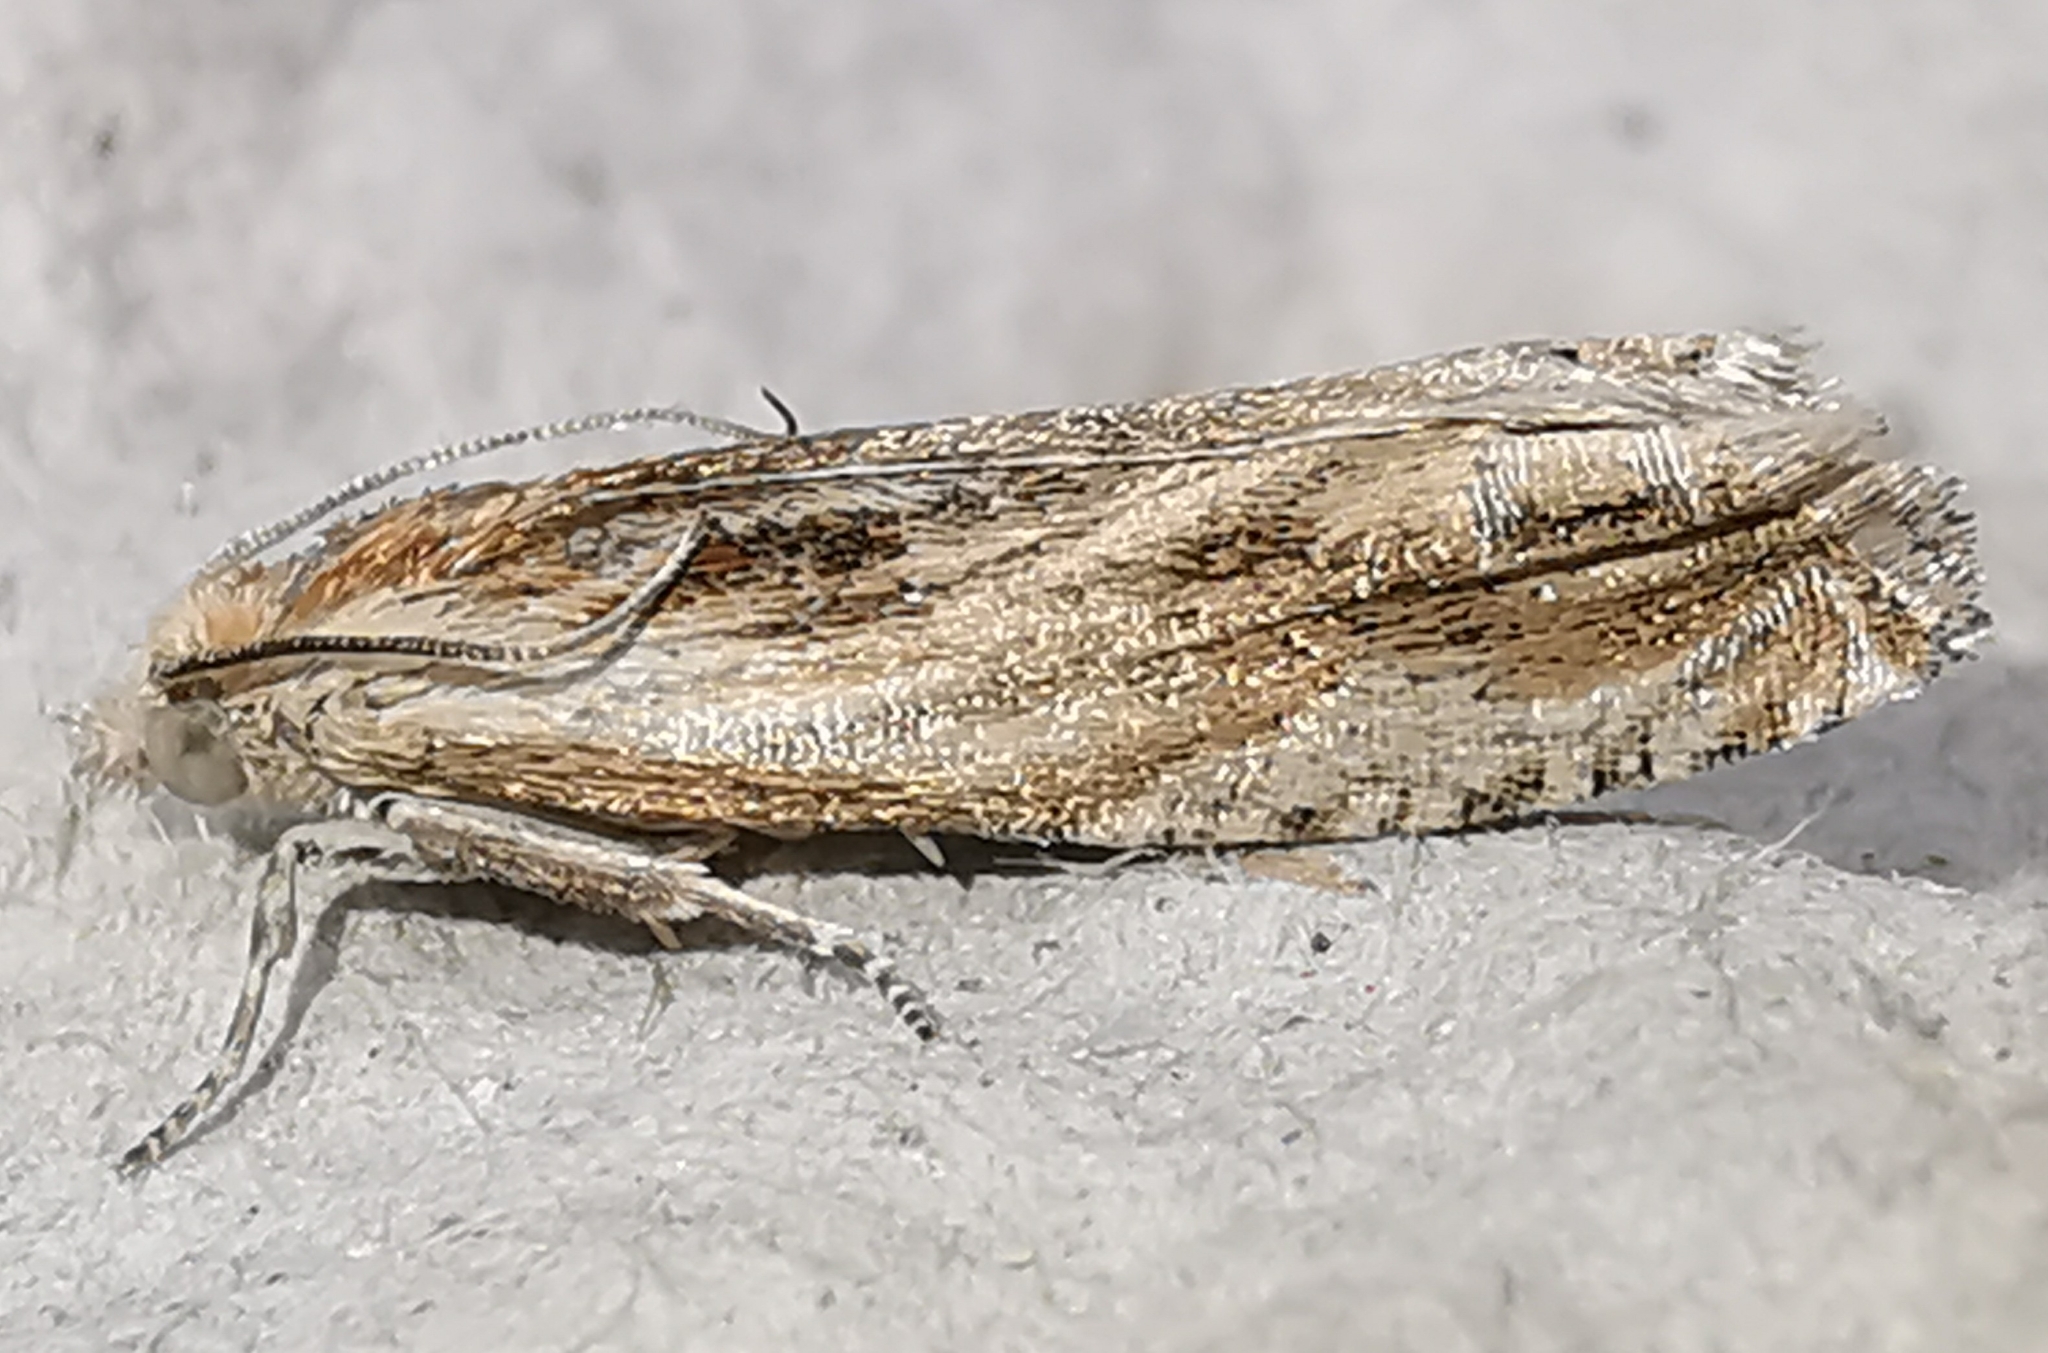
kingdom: Animalia
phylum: Arthropoda
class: Insecta
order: Lepidoptera
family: Tortricidae
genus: Eucosma
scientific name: Eucosma cana
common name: Hoary belle
